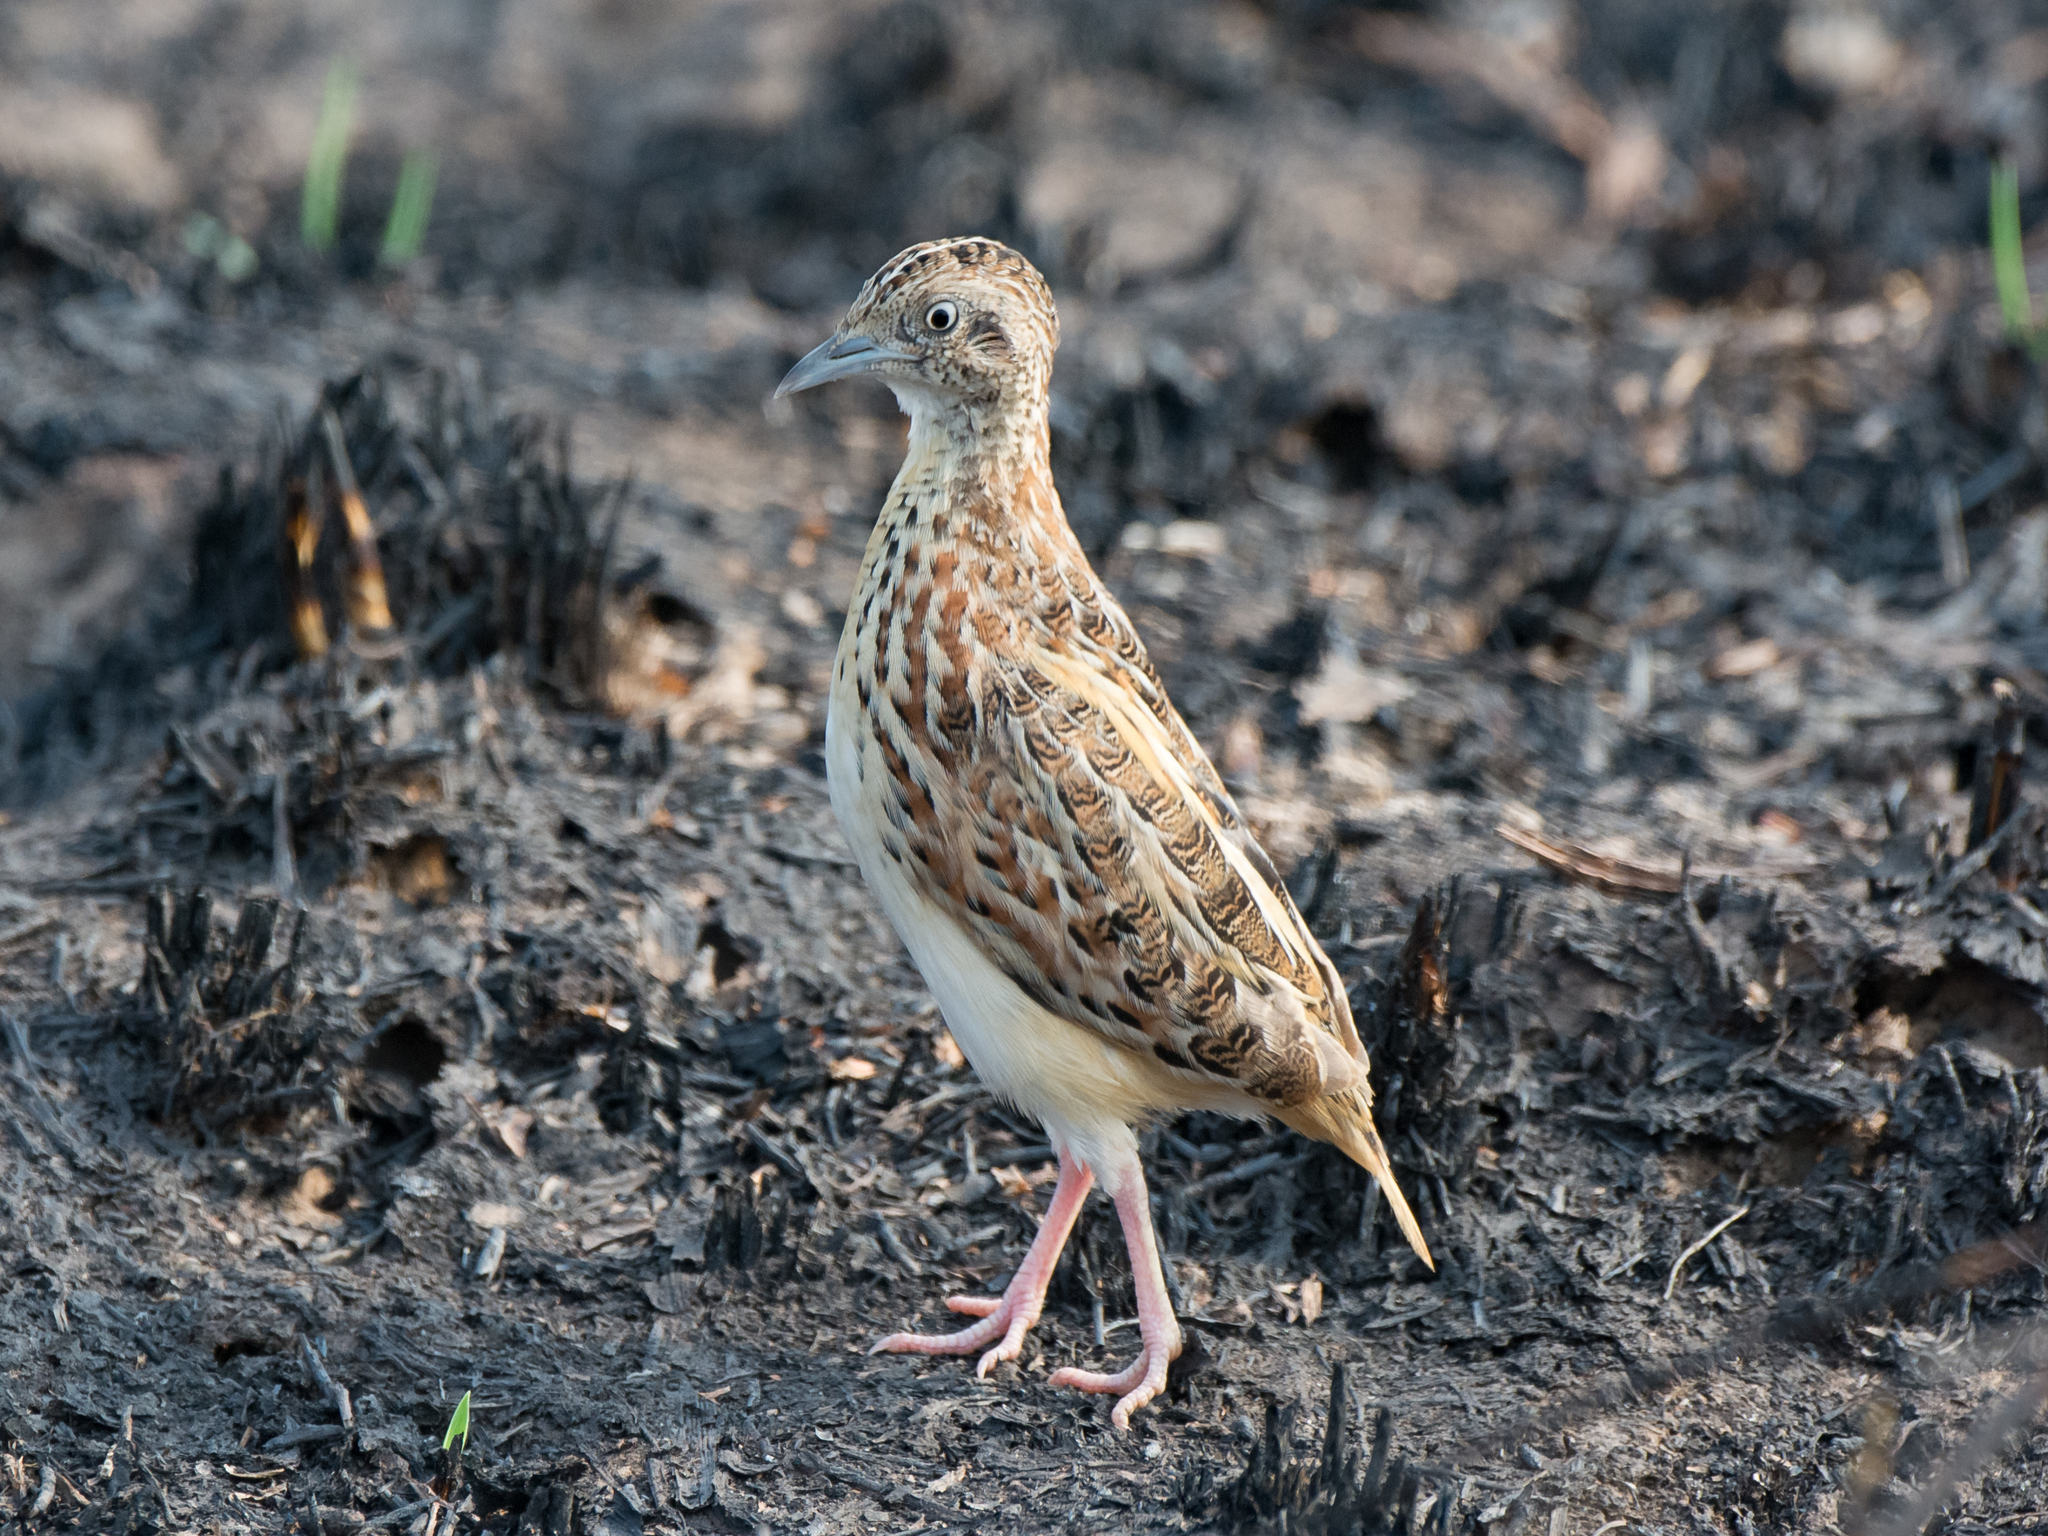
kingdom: Animalia
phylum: Chordata
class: Aves
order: Charadriiformes
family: Turnicidae
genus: Turnix
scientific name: Turnix sylvaticus
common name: Common buttonquail
